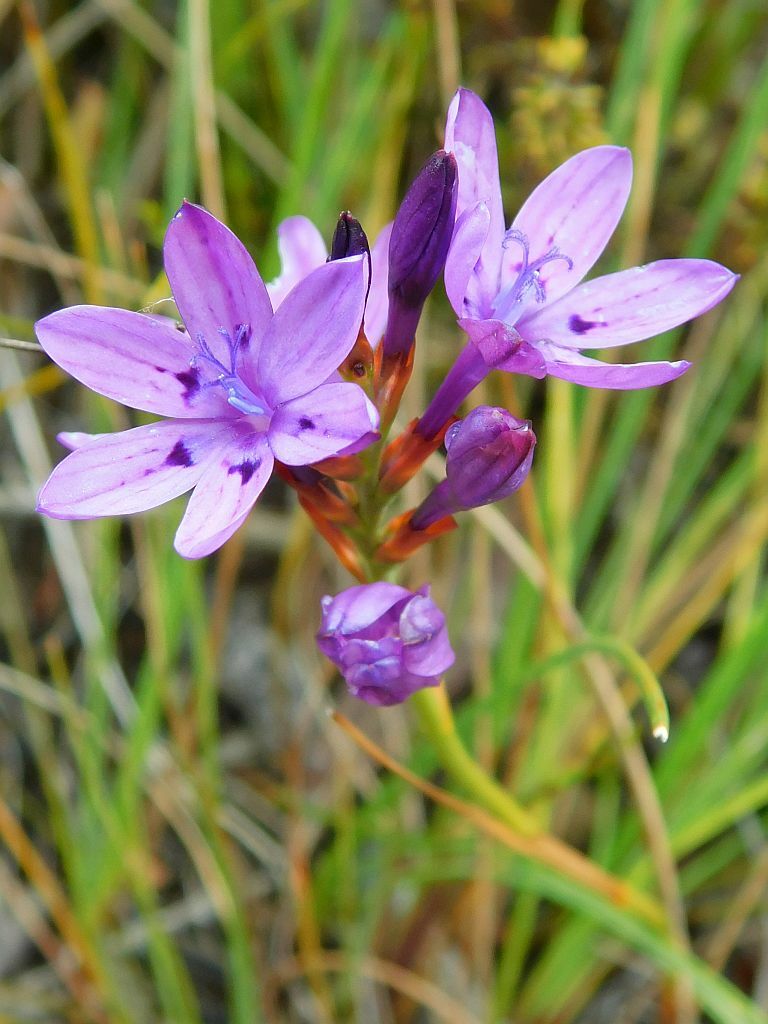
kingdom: Plantae
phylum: Tracheophyta
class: Liliopsida
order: Asparagales
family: Iridaceae
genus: Thereianthus
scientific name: Thereianthus spicatus
